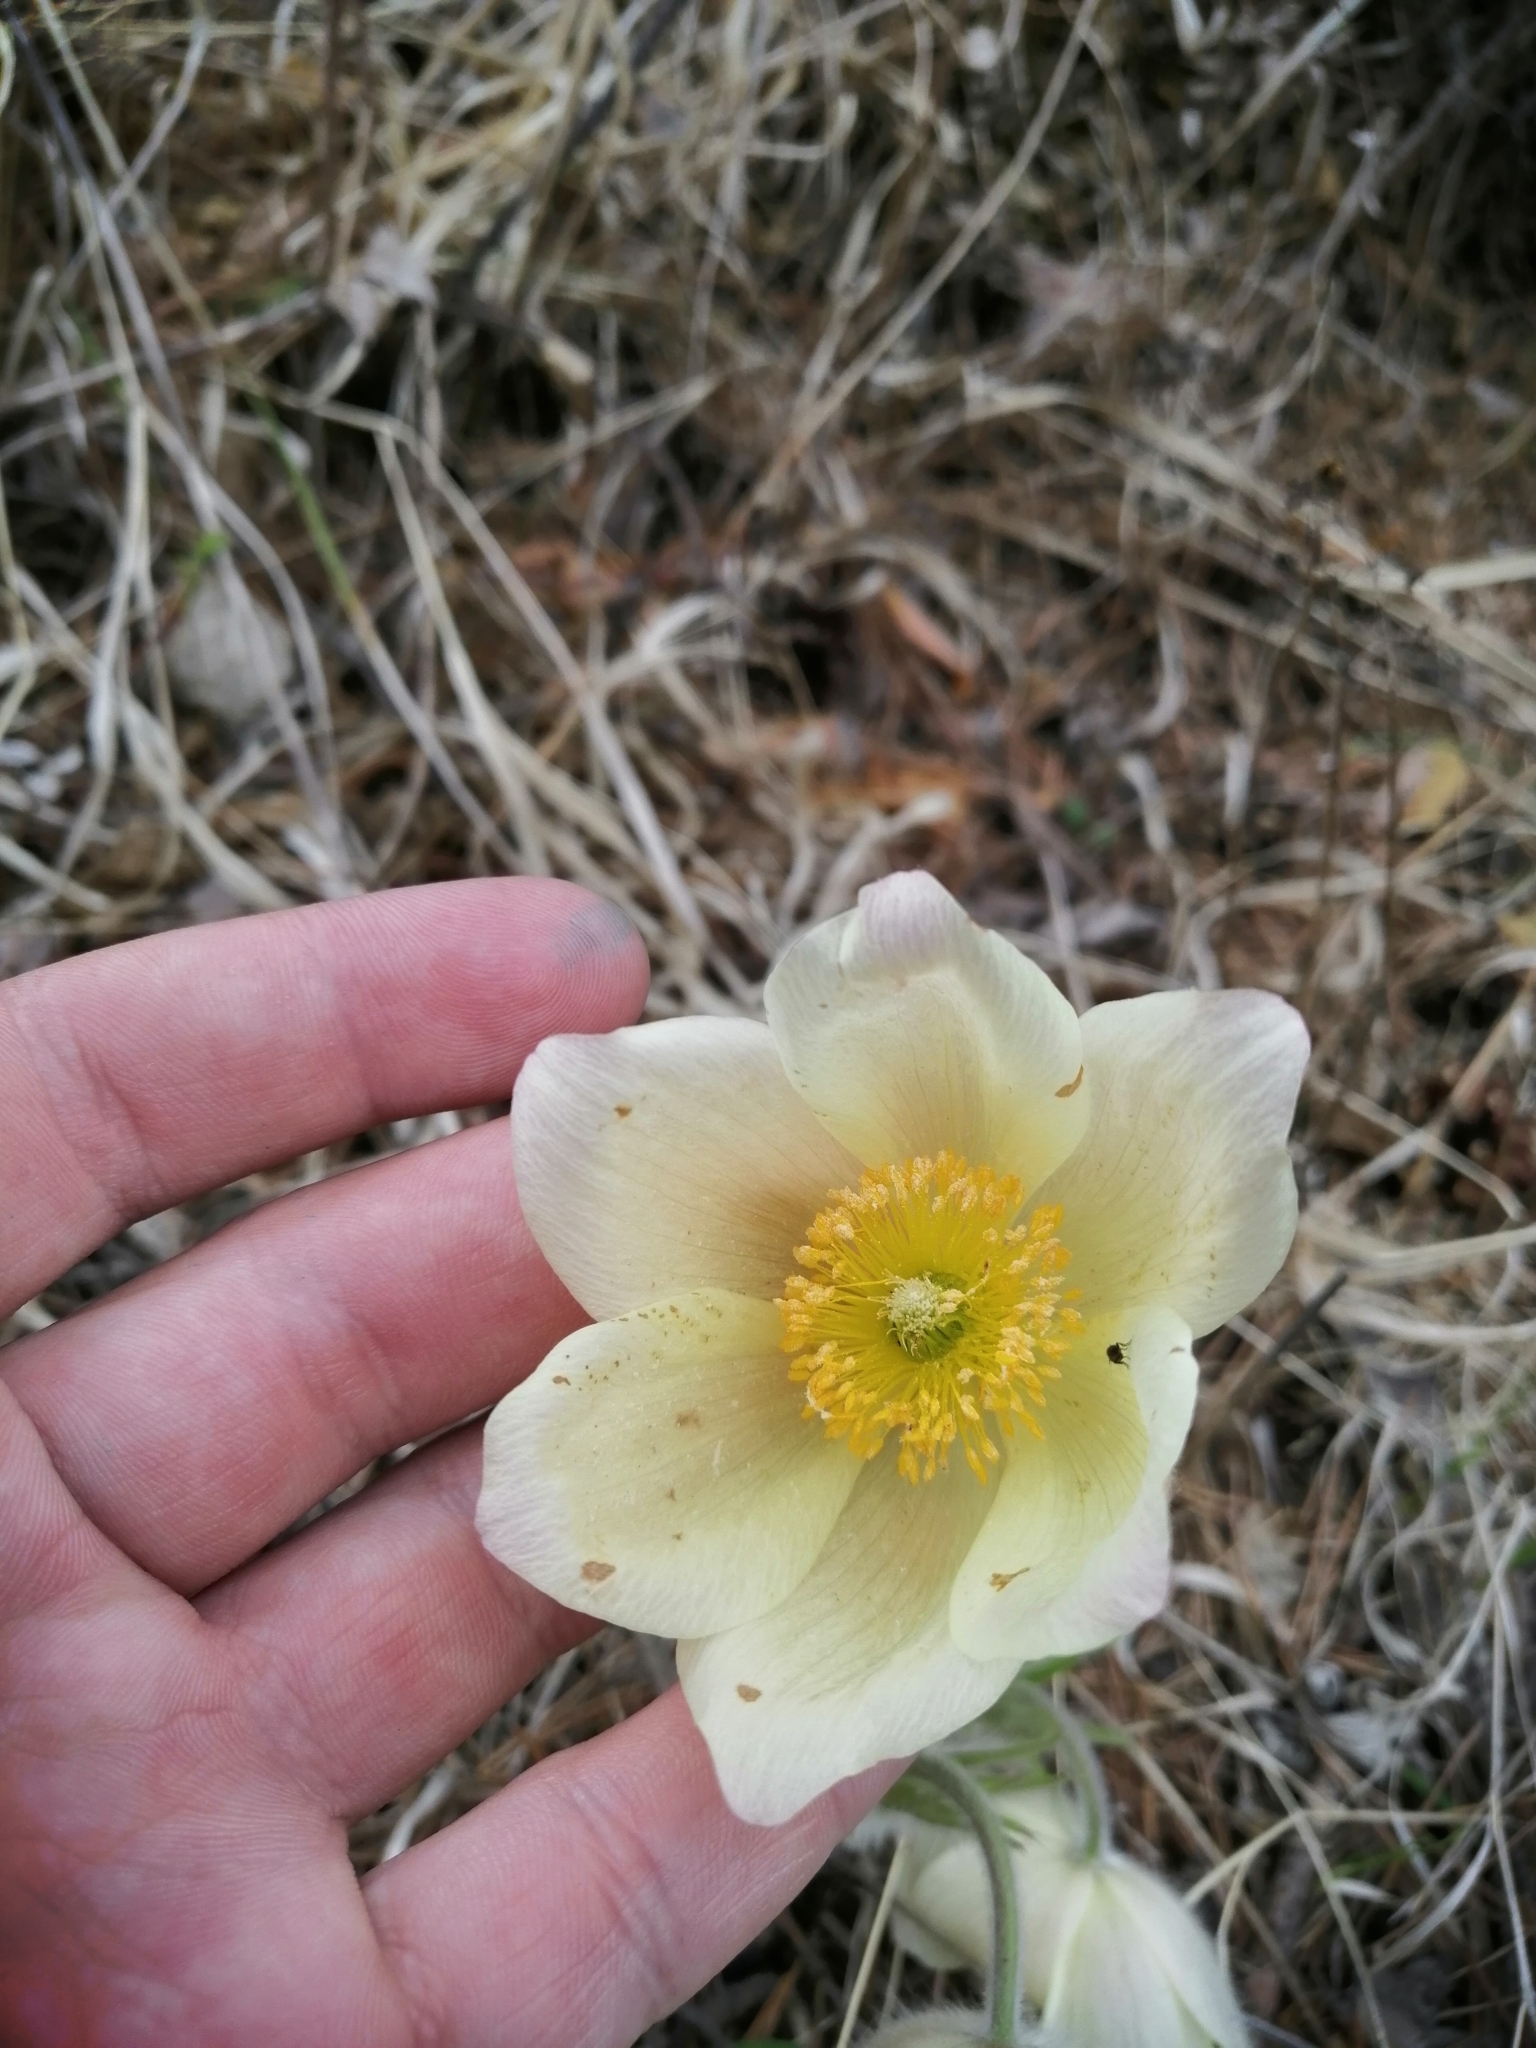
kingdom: Plantae
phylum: Tracheophyta
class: Magnoliopsida
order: Ranunculales
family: Ranunculaceae
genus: Pulsatilla
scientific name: Pulsatilla patens
